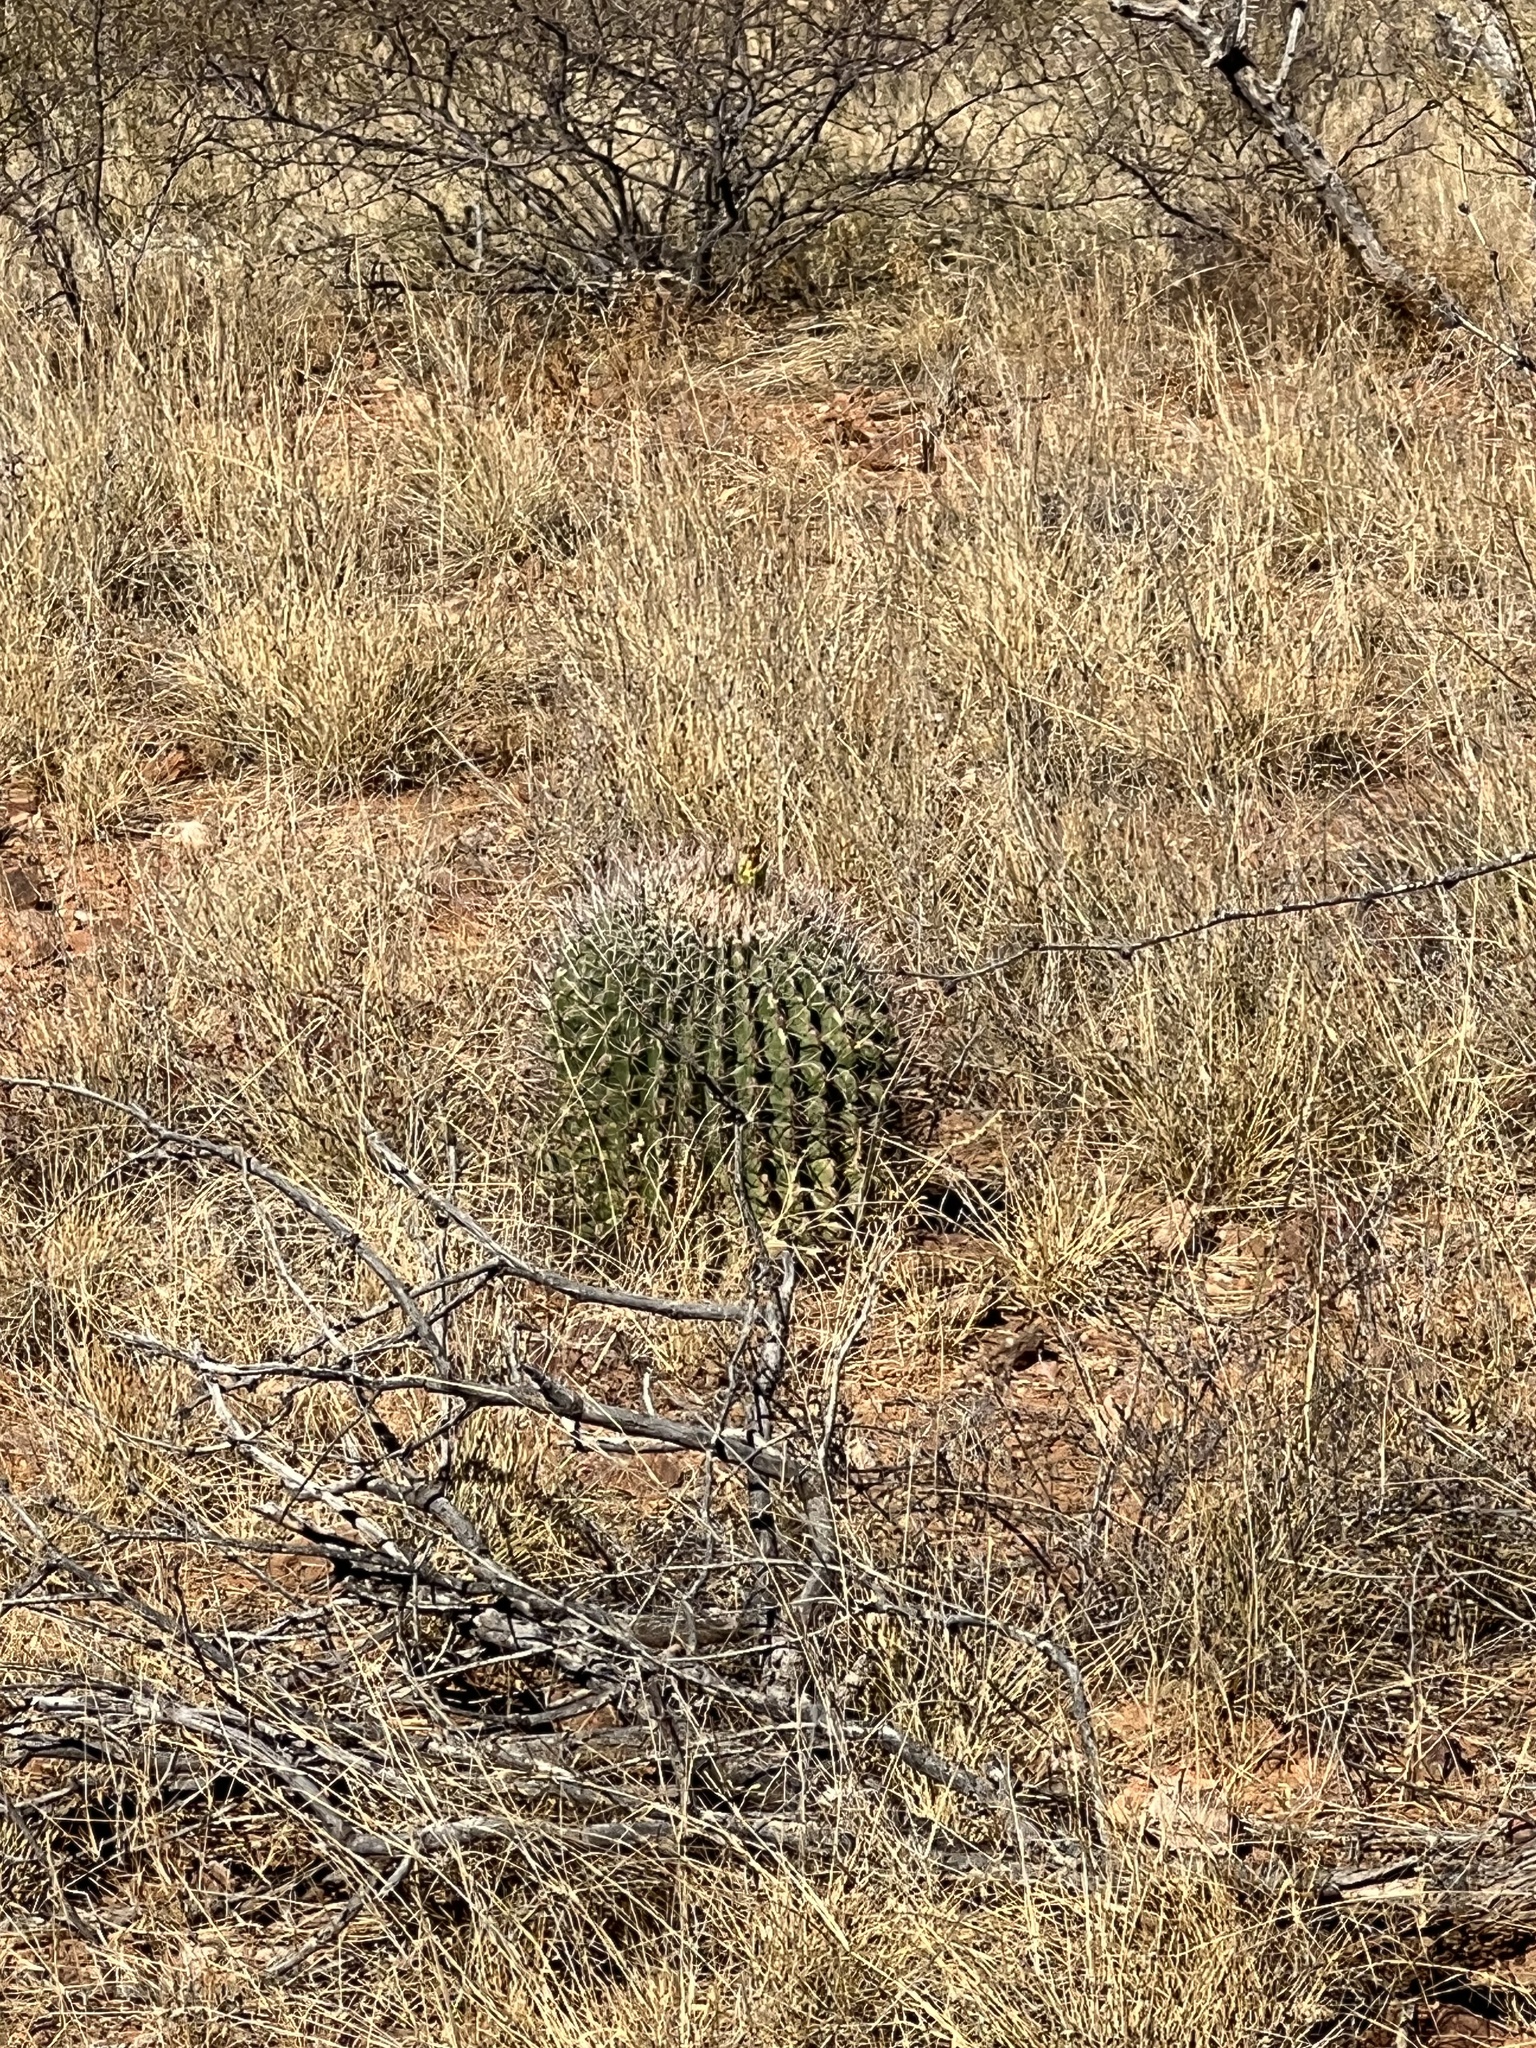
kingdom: Plantae
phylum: Tracheophyta
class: Magnoliopsida
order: Caryophyllales
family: Cactaceae
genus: Ferocactus
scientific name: Ferocactus wislizeni
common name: Candy barrel cactus
